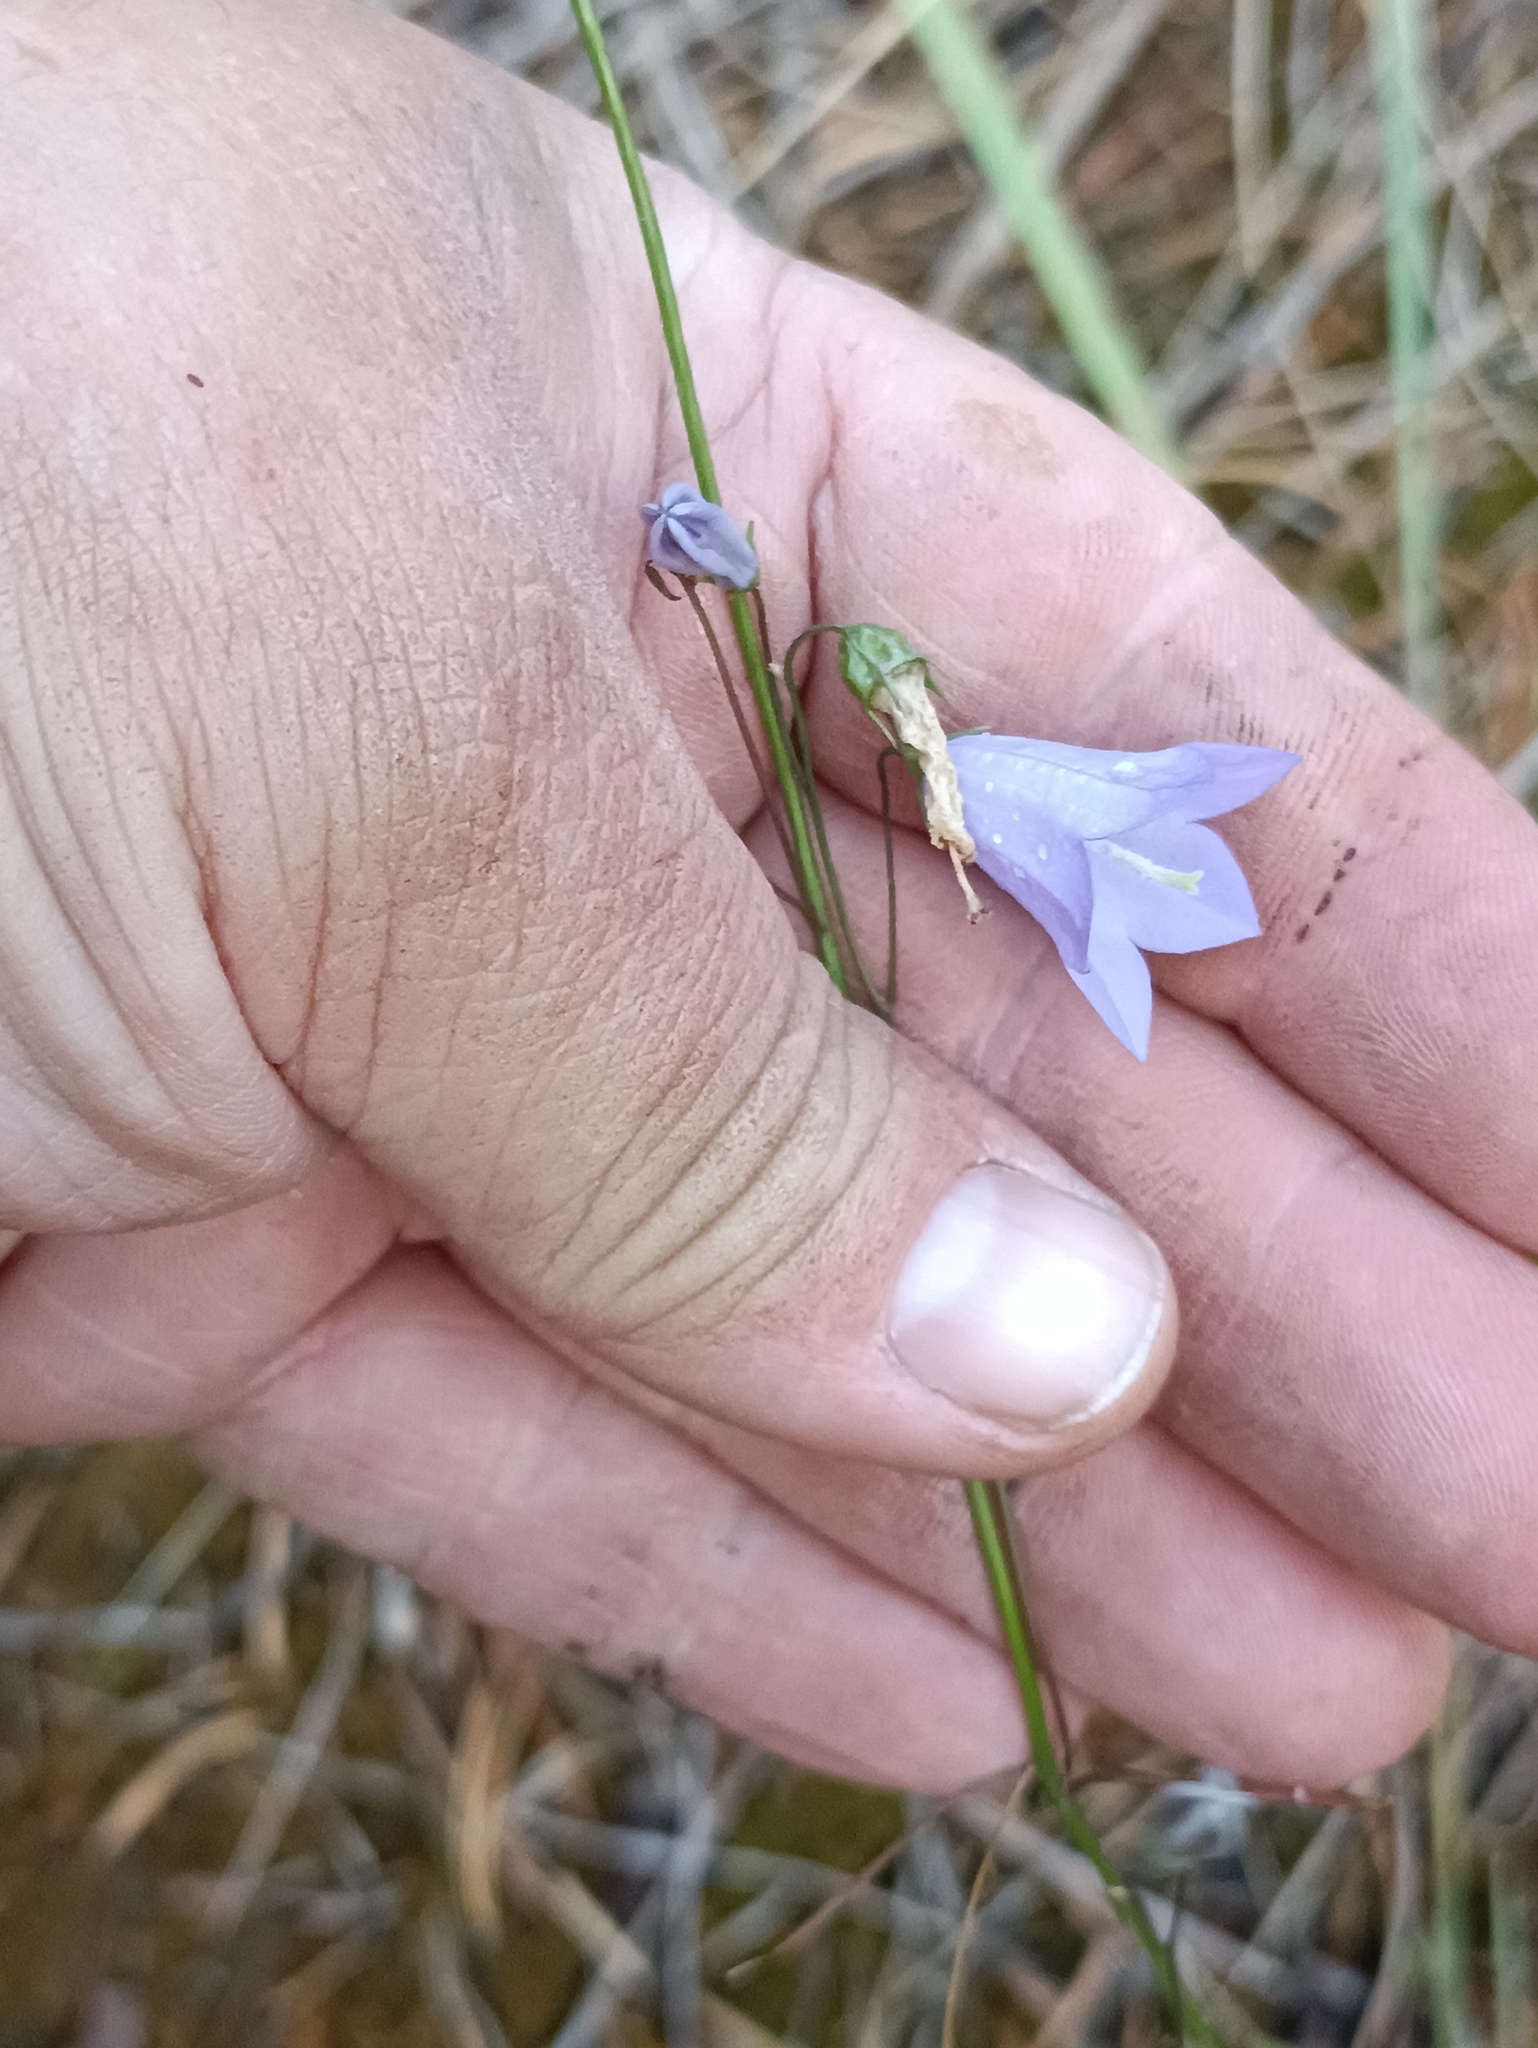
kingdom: Plantae
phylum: Tracheophyta
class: Magnoliopsida
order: Asterales
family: Campanulaceae
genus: Campanula
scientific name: Campanula rotundifolia
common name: Harebell
